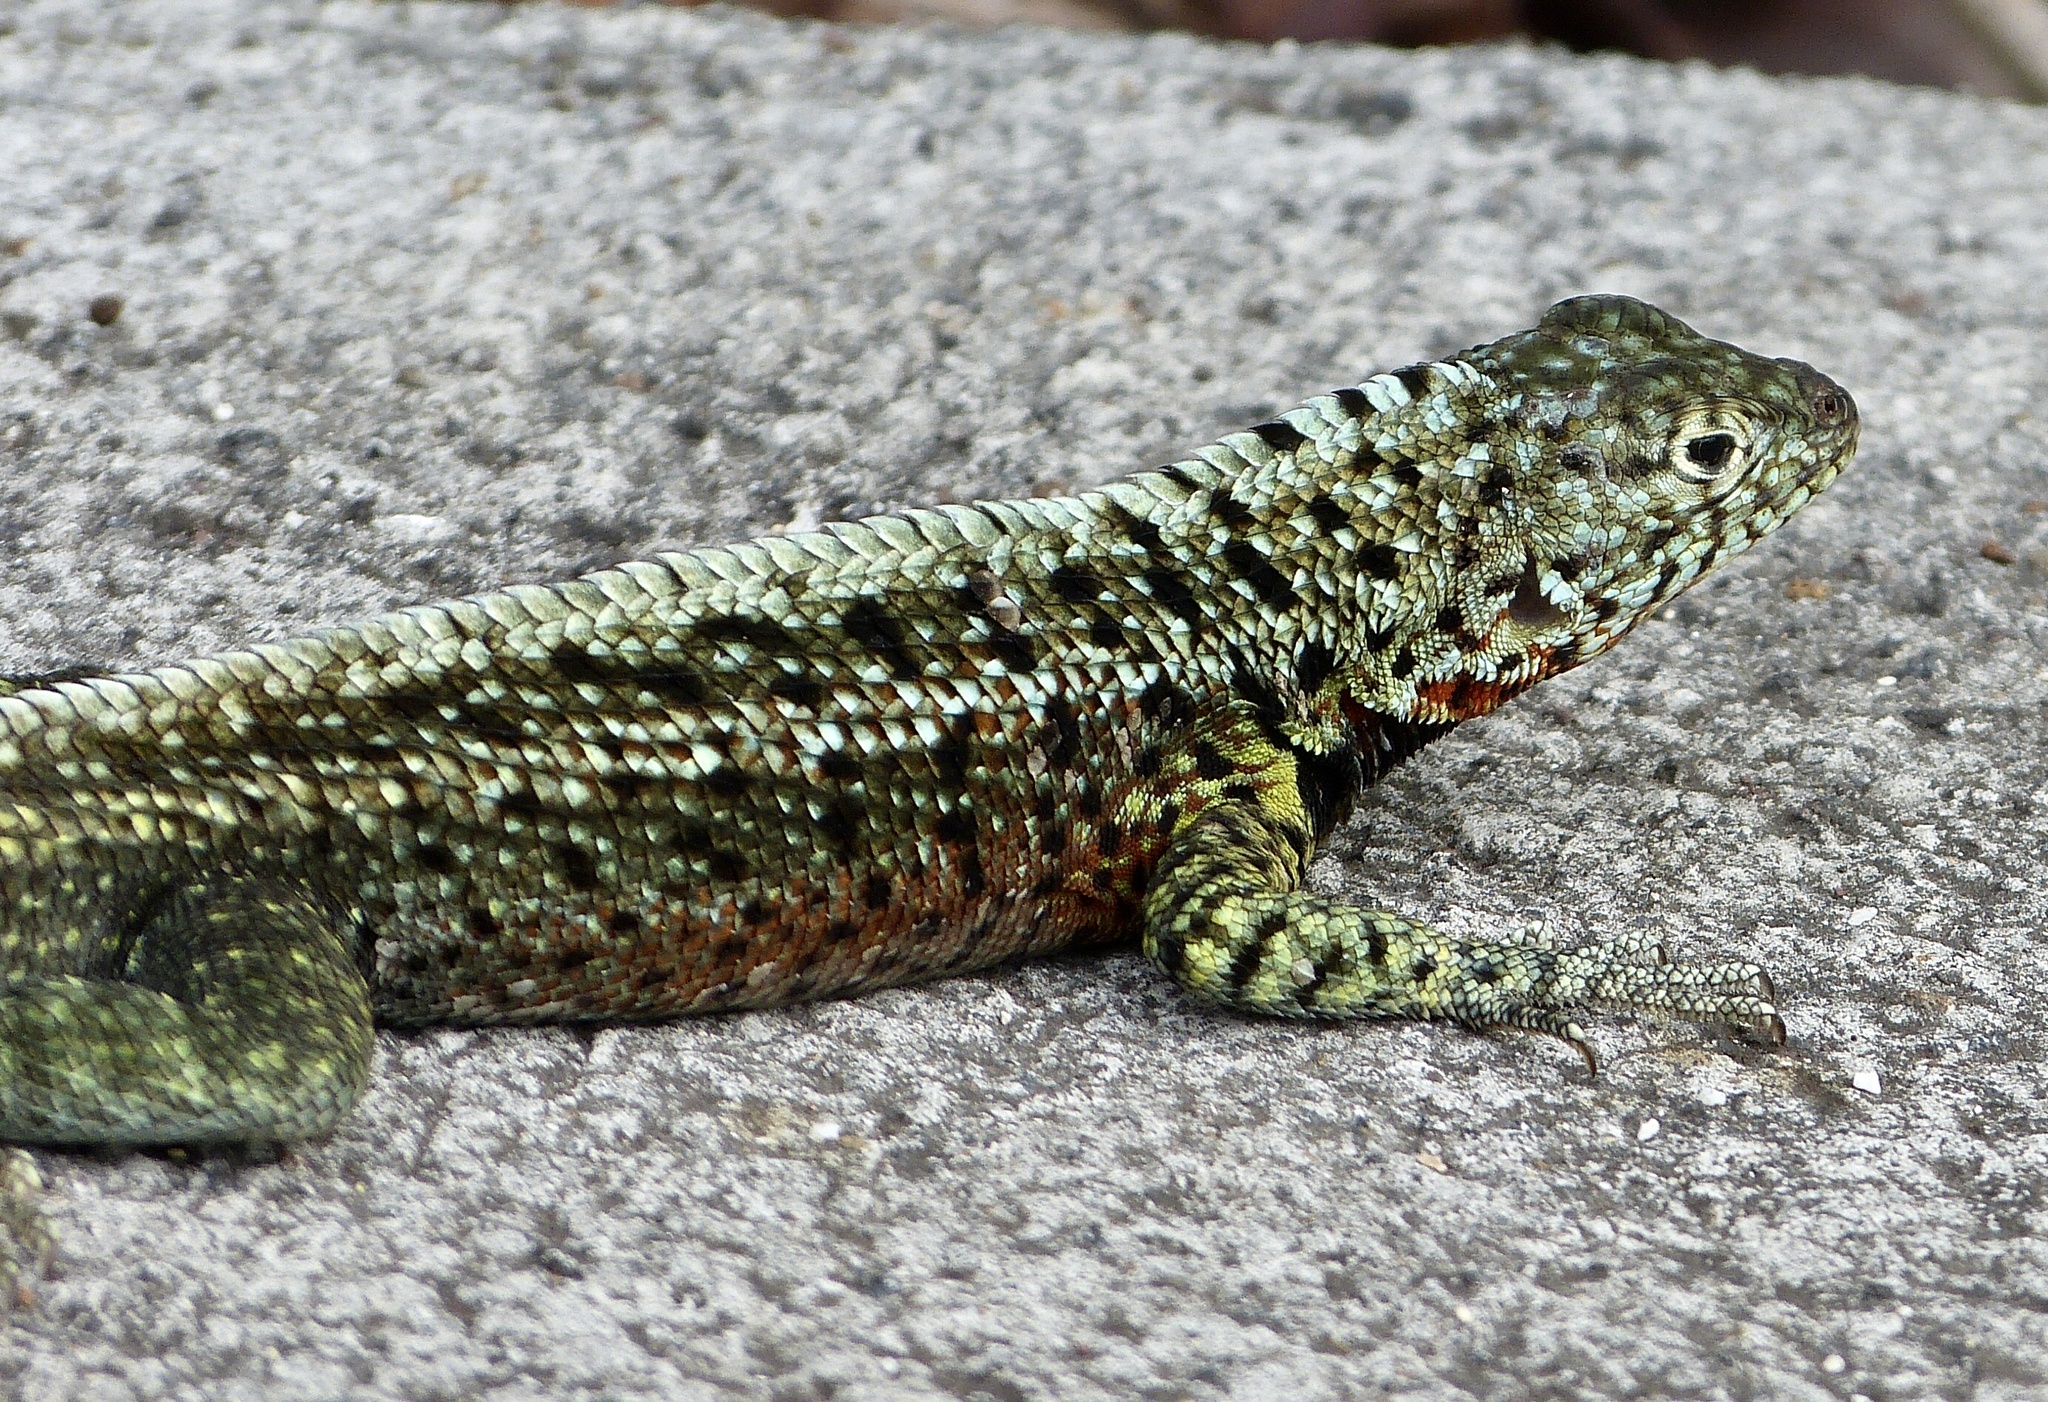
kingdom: Animalia
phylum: Chordata
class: Squamata
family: Tropiduridae
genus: Microlophus
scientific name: Microlophus indefatigabilis
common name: Galapagos lava lizard
